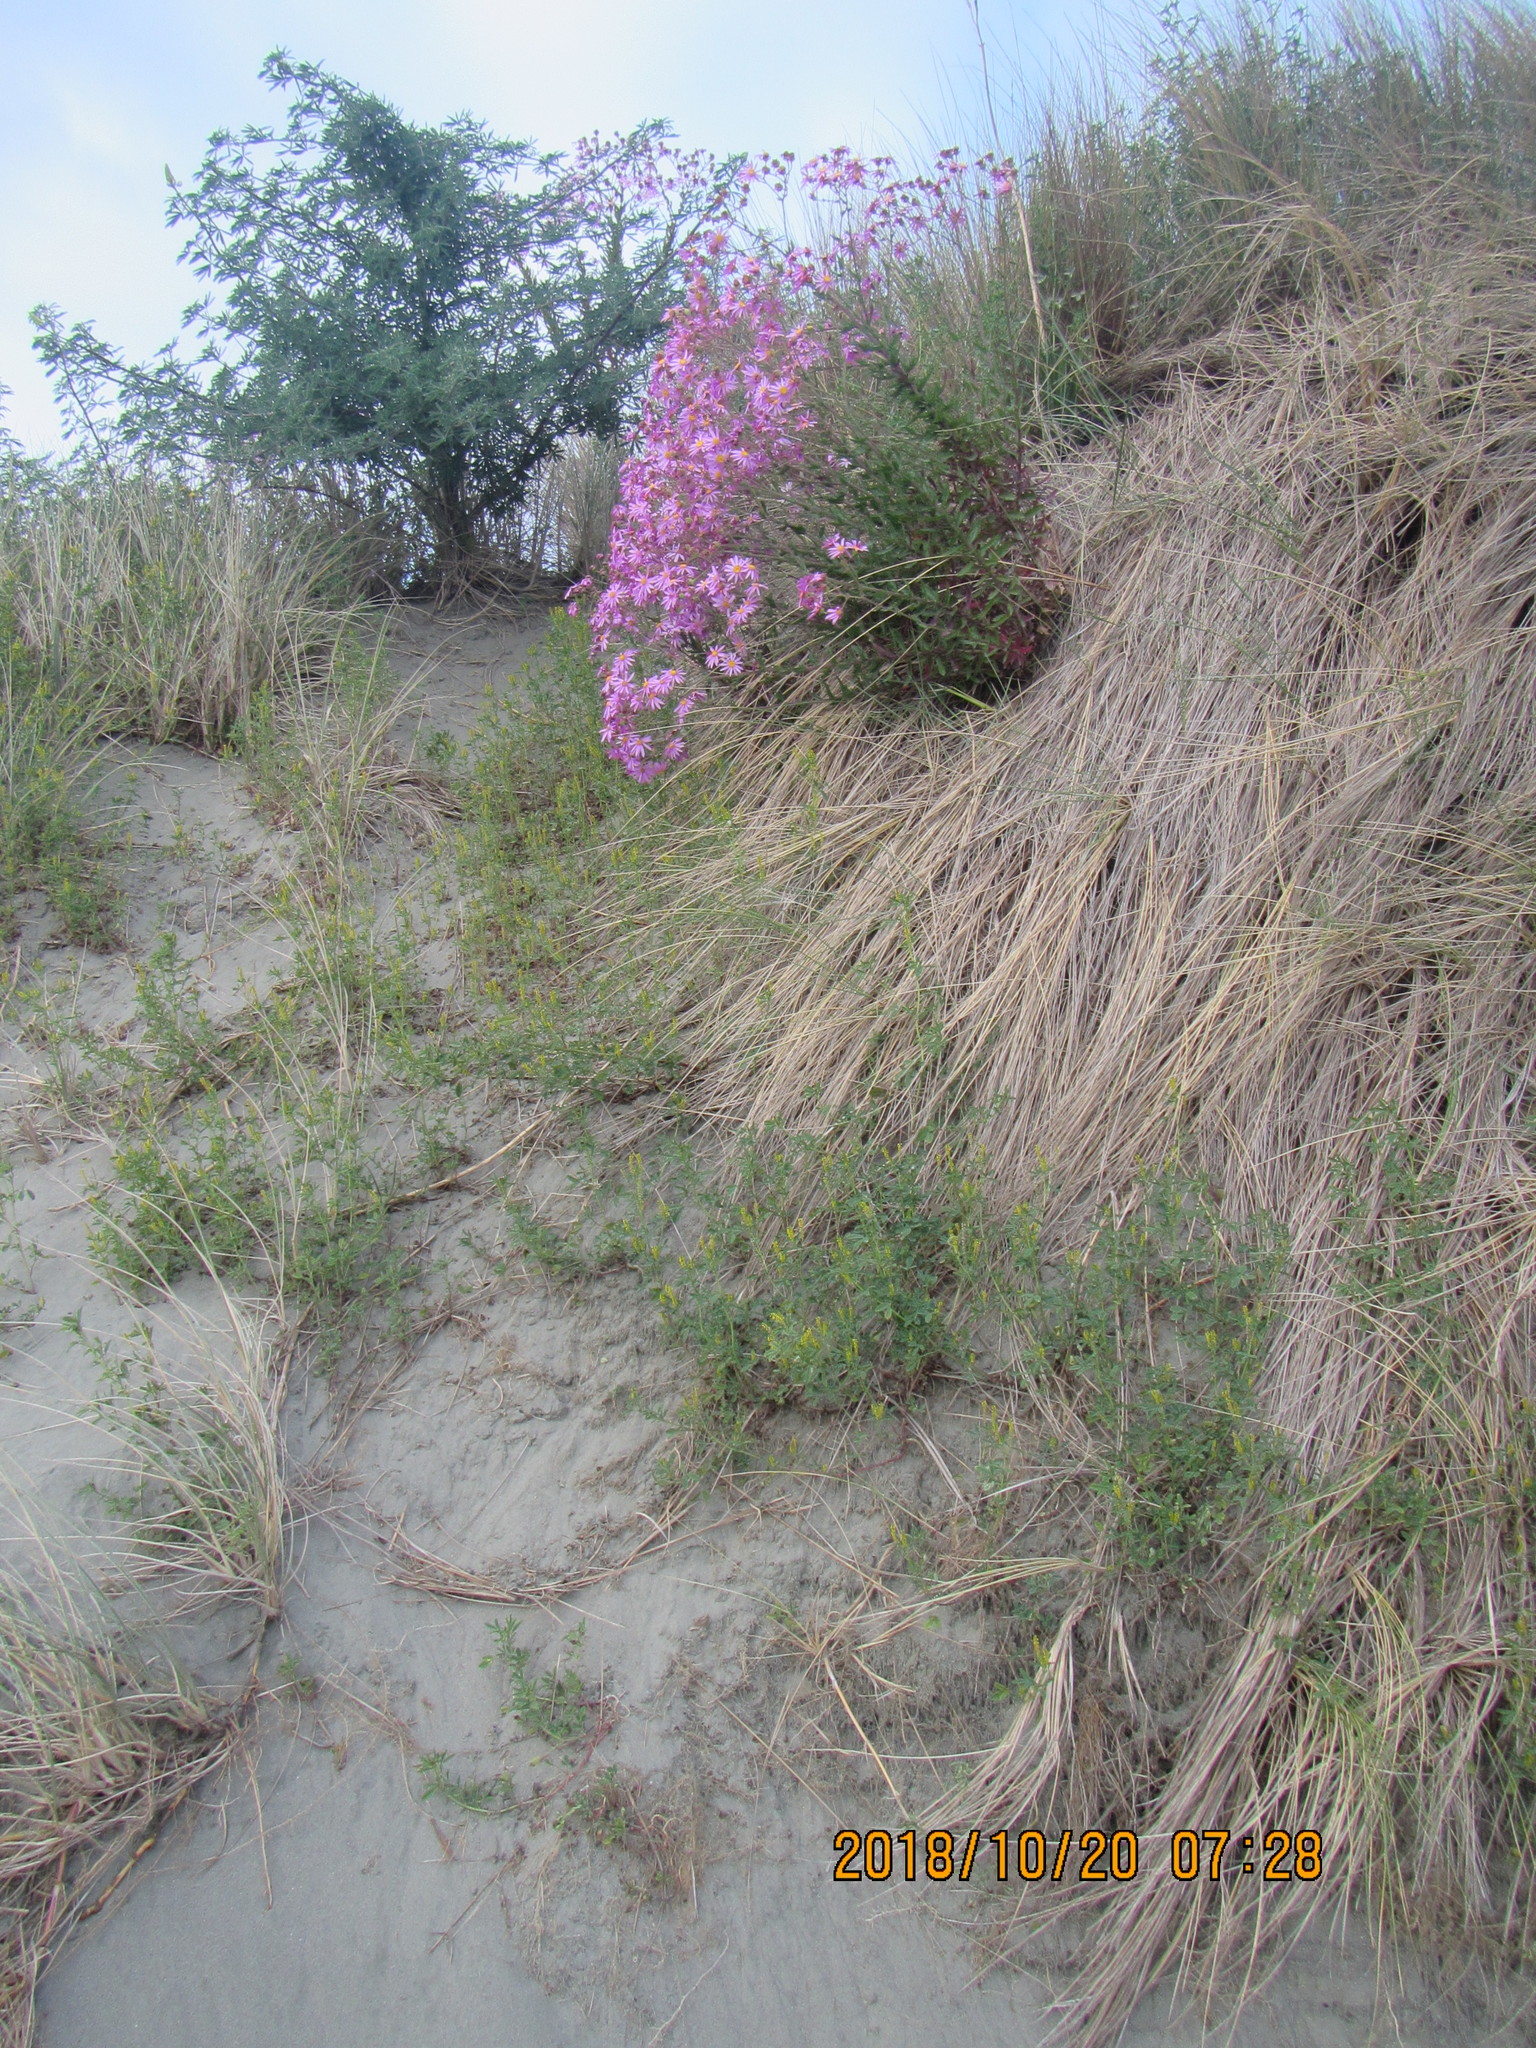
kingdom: Plantae
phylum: Tracheophyta
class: Magnoliopsida
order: Asterales
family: Asteraceae
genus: Senecio
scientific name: Senecio glastifolius
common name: Woad-leaved ragwort
